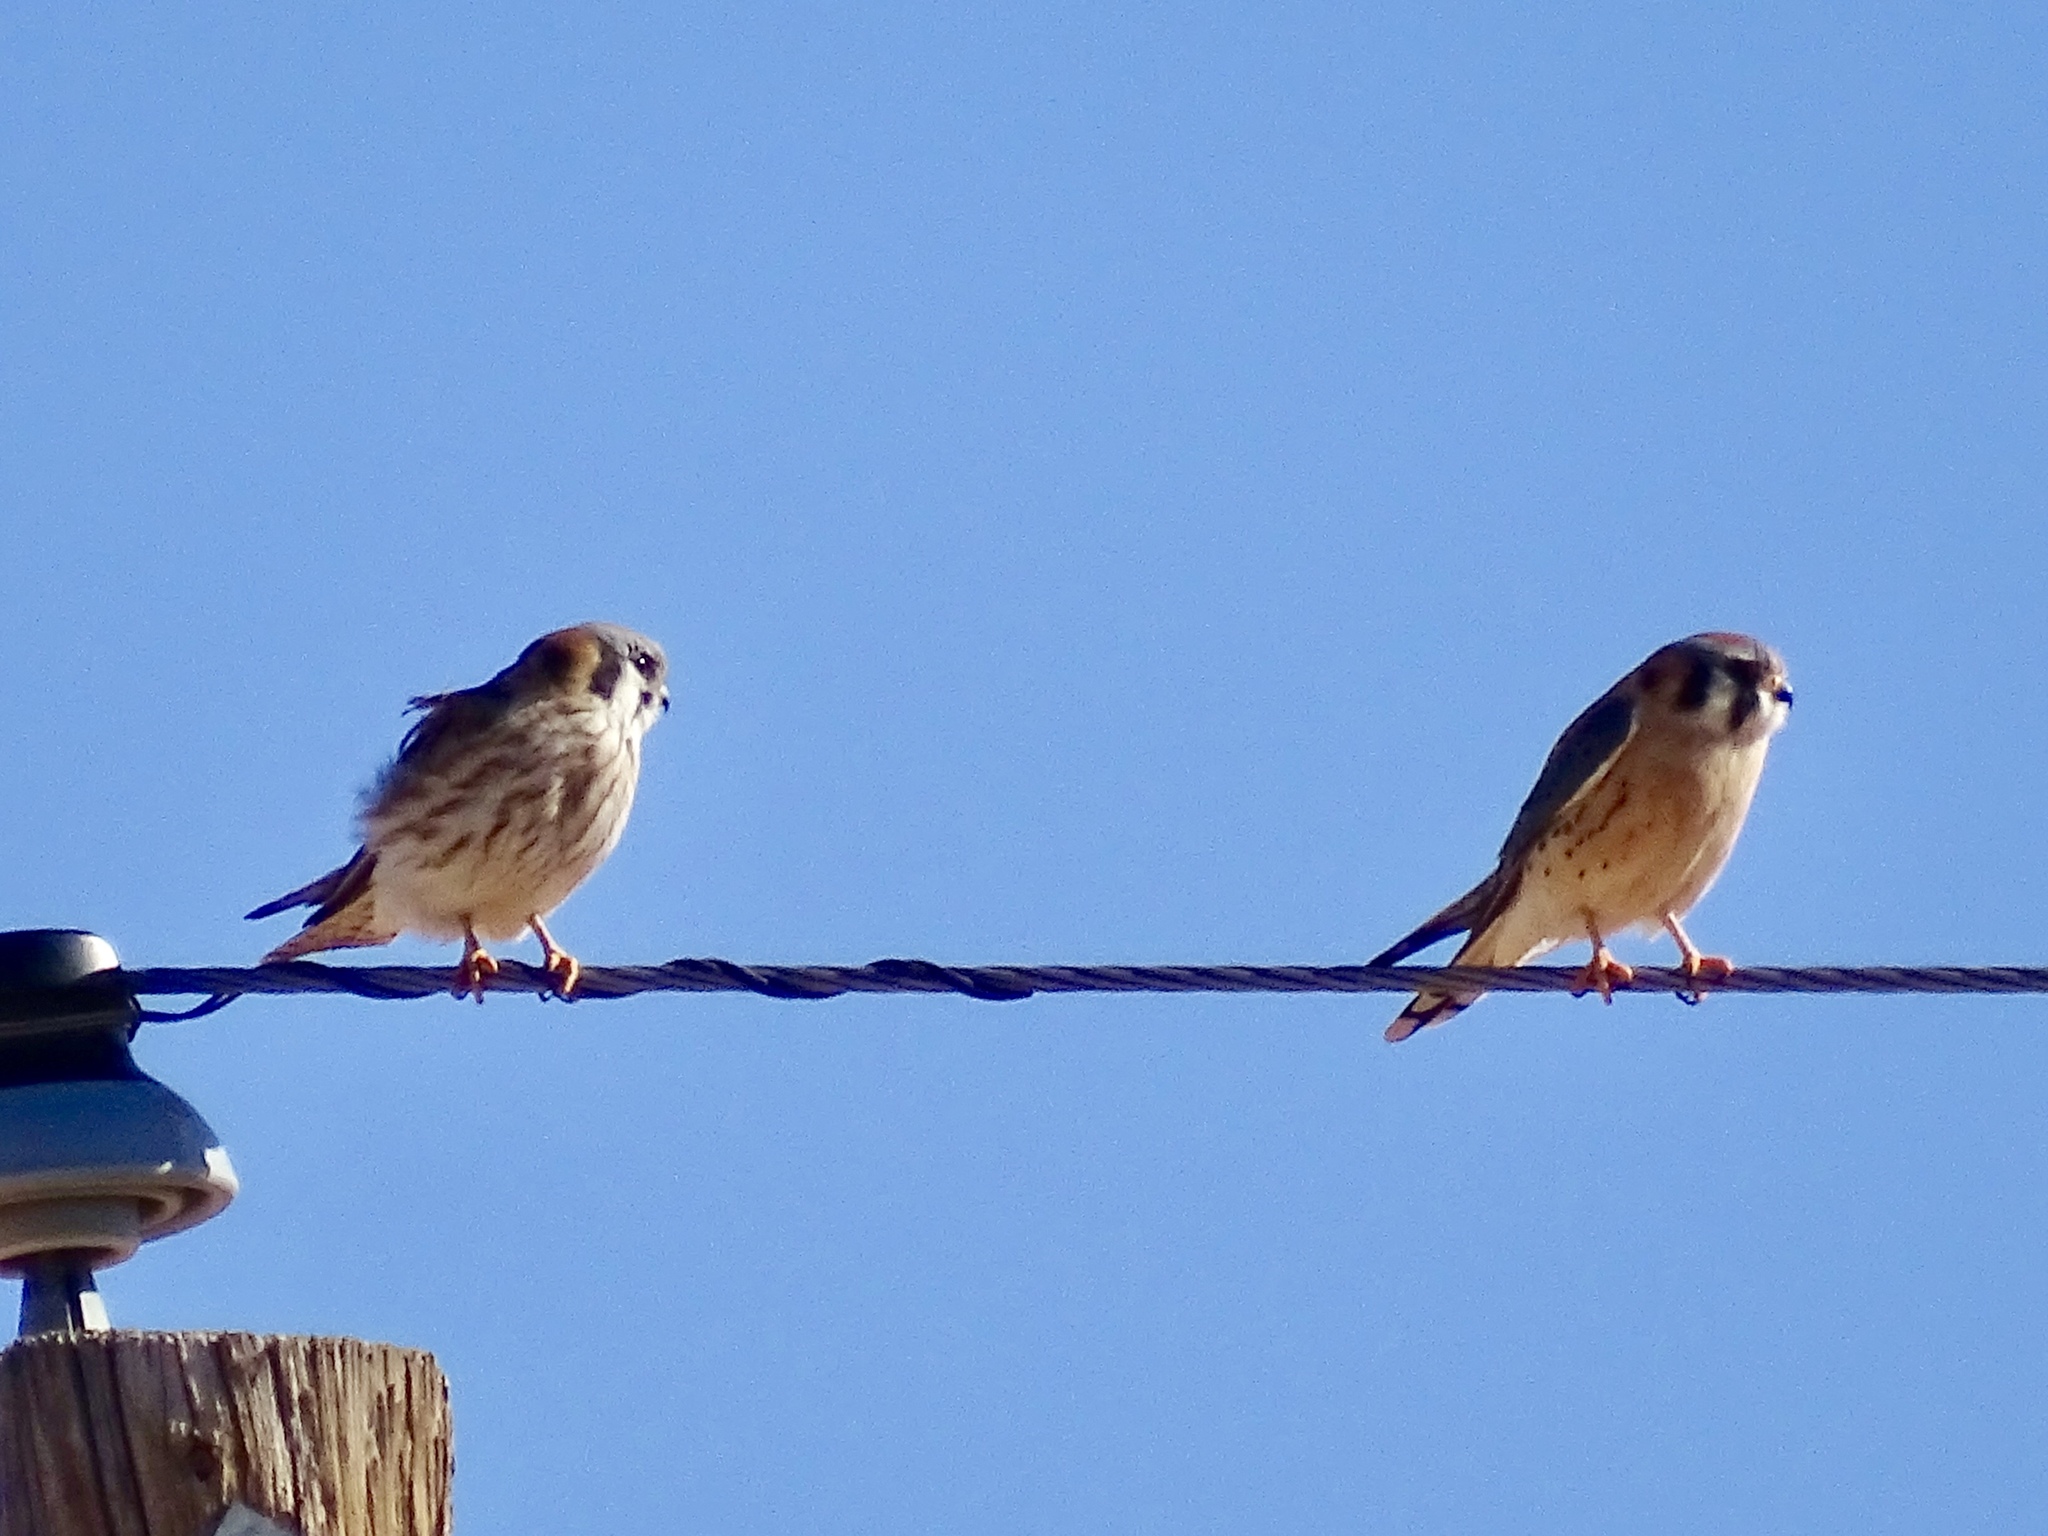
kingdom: Animalia
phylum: Chordata
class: Aves
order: Falconiformes
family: Falconidae
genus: Falco
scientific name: Falco sparverius
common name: American kestrel
